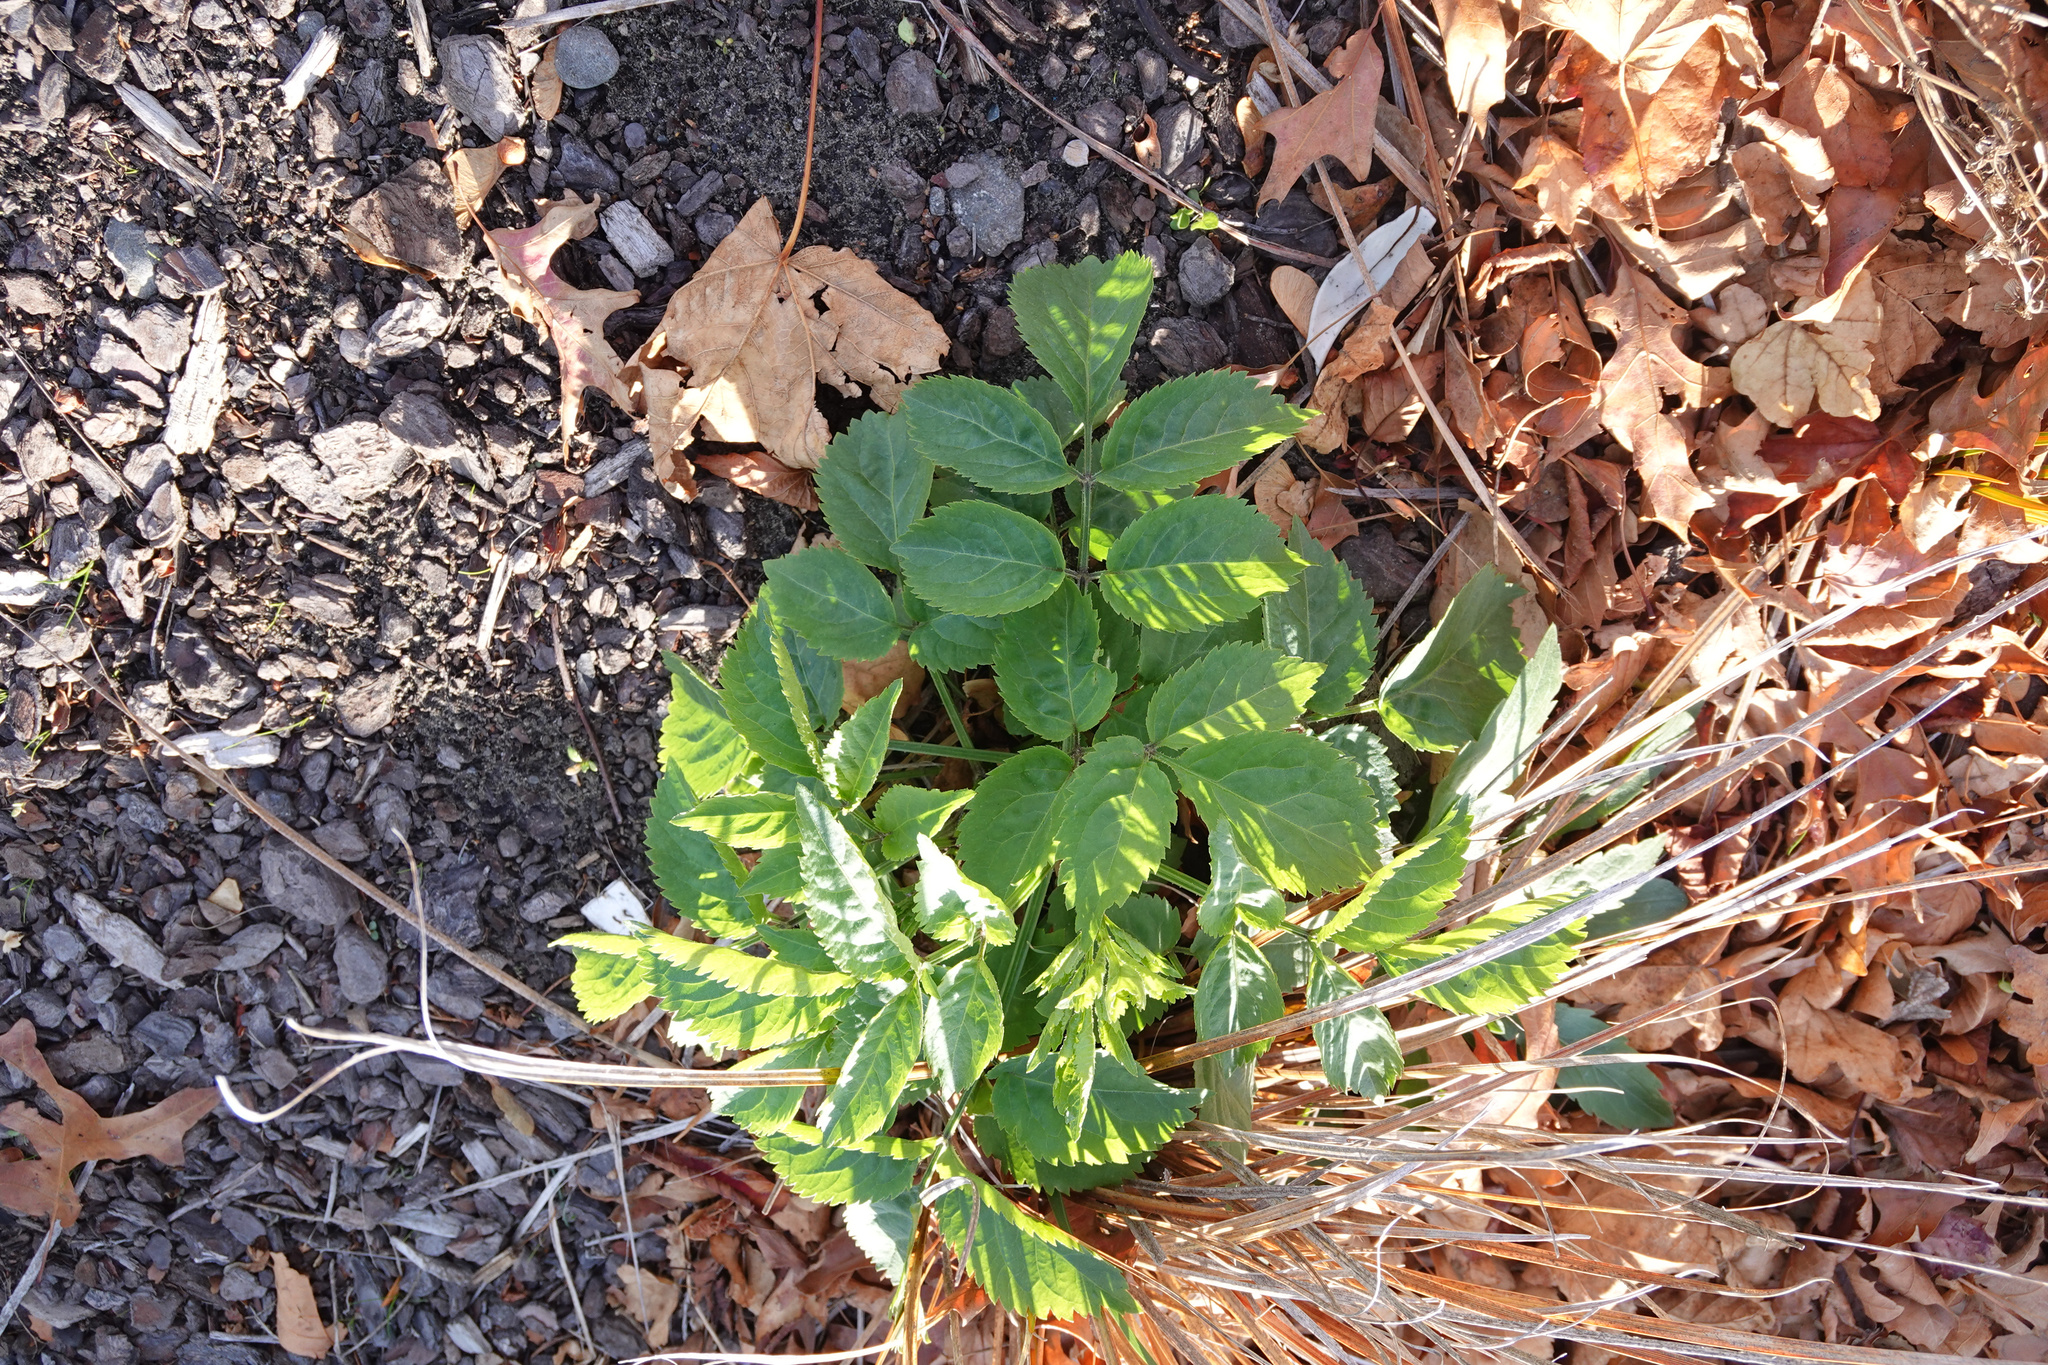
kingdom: Plantae
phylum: Tracheophyta
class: Magnoliopsida
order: Dipsacales
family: Viburnaceae
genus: Sambucus
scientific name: Sambucus nigra
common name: Elder
